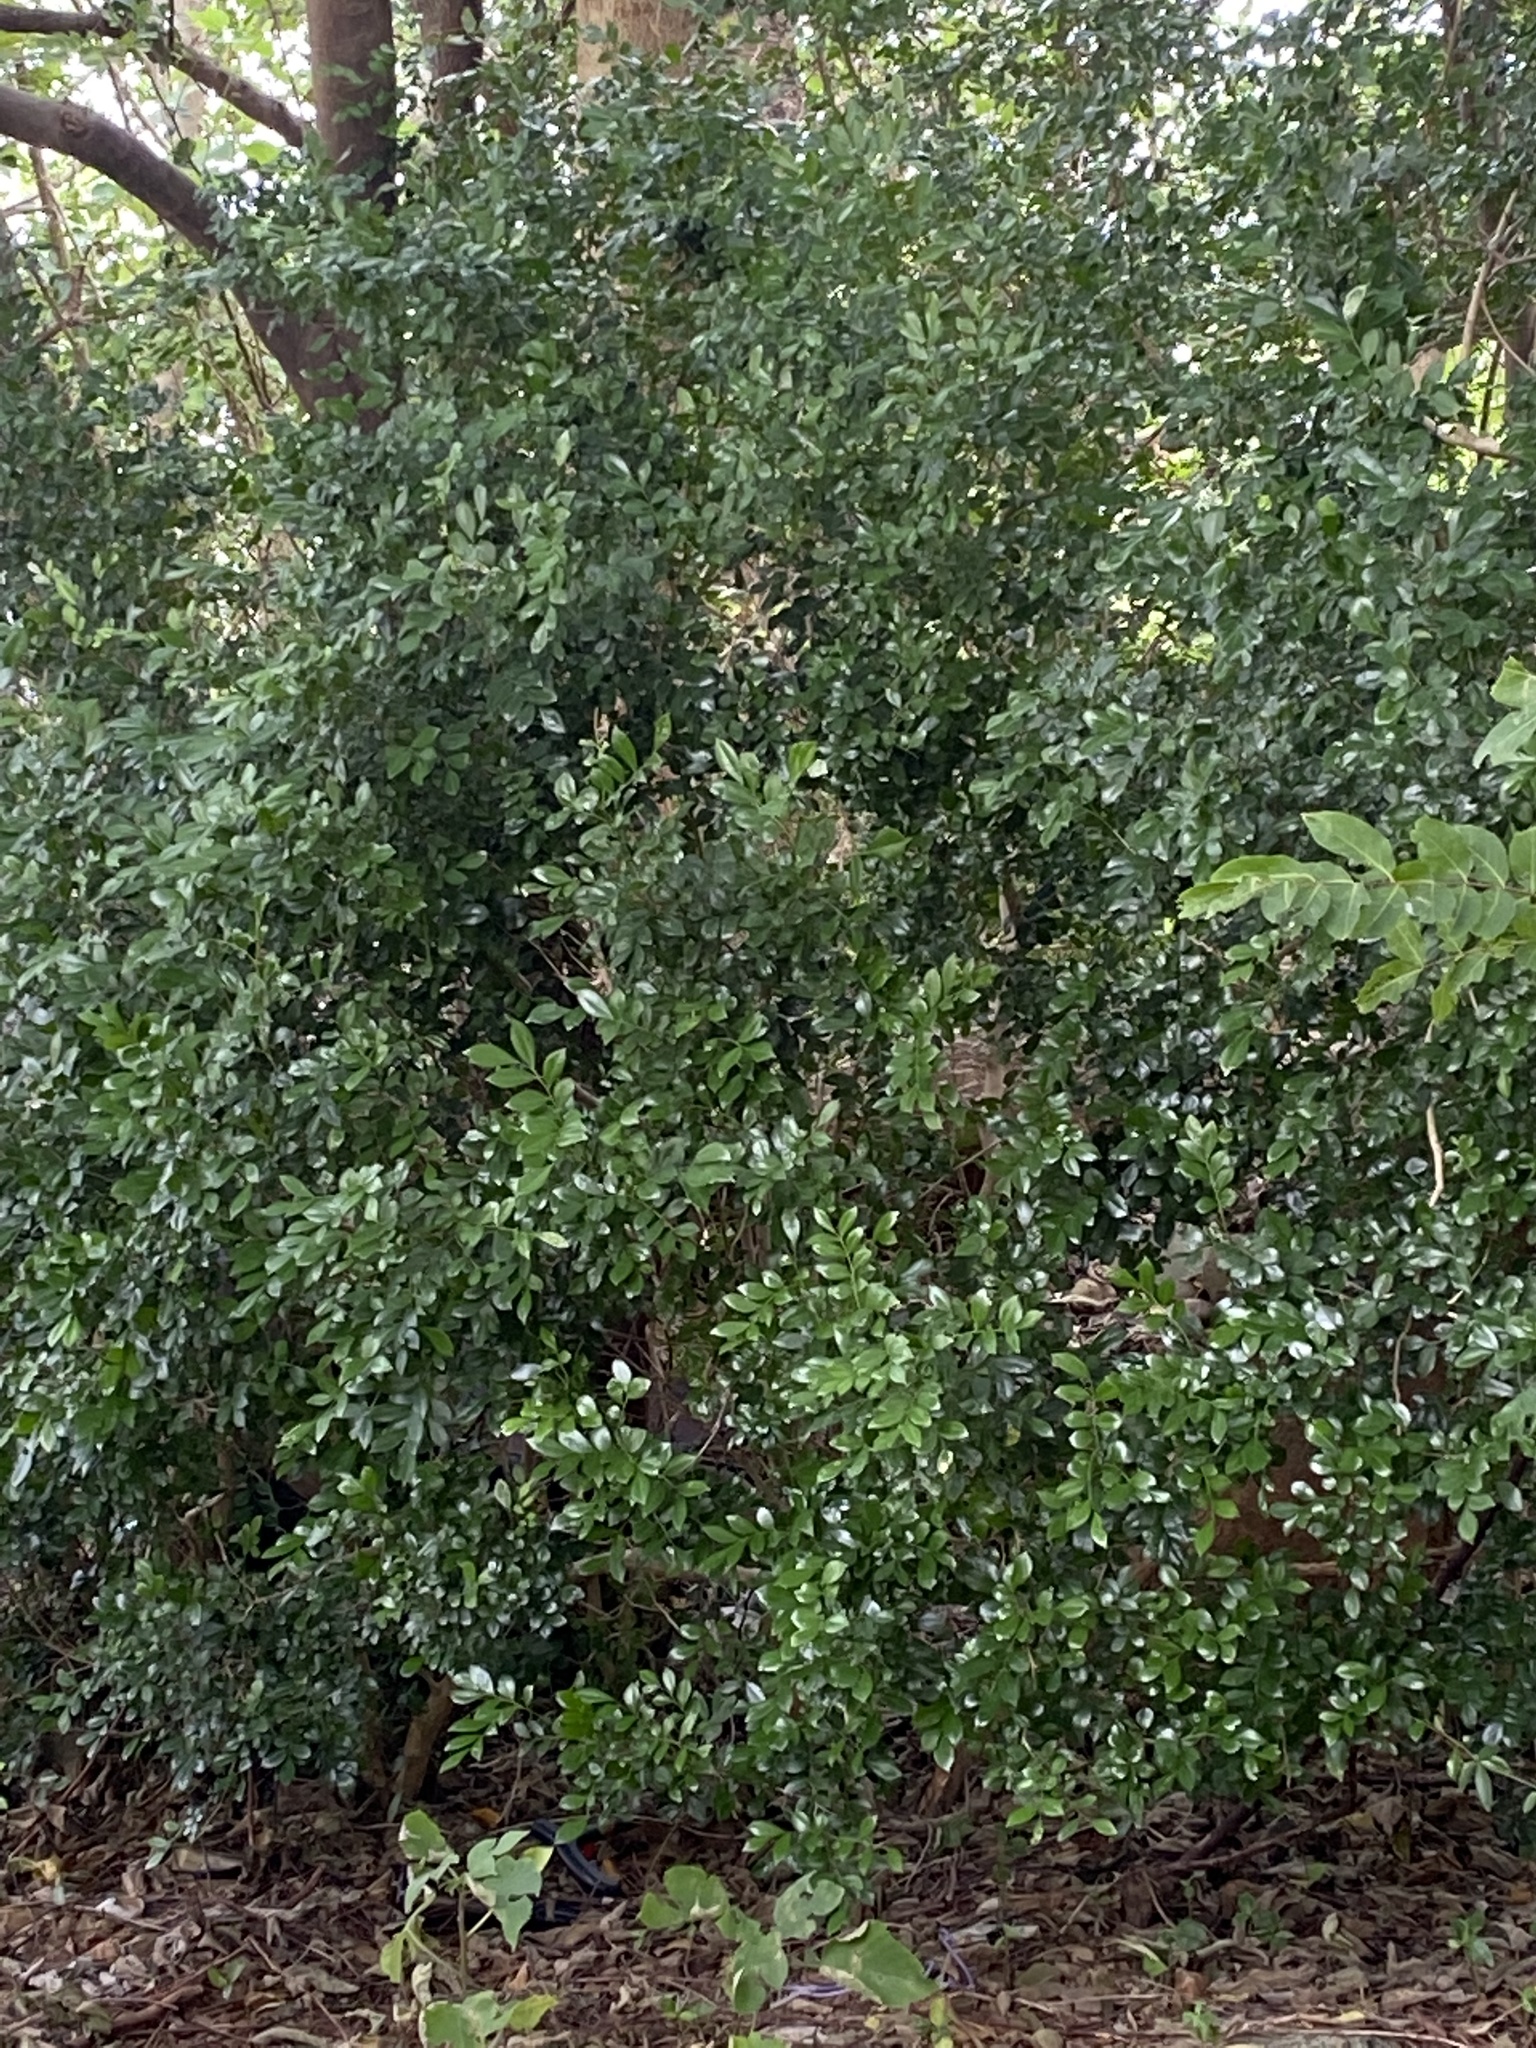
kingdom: Plantae
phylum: Tracheophyta
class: Magnoliopsida
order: Sapindales
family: Rutaceae
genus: Murraya
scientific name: Murraya paniculata
